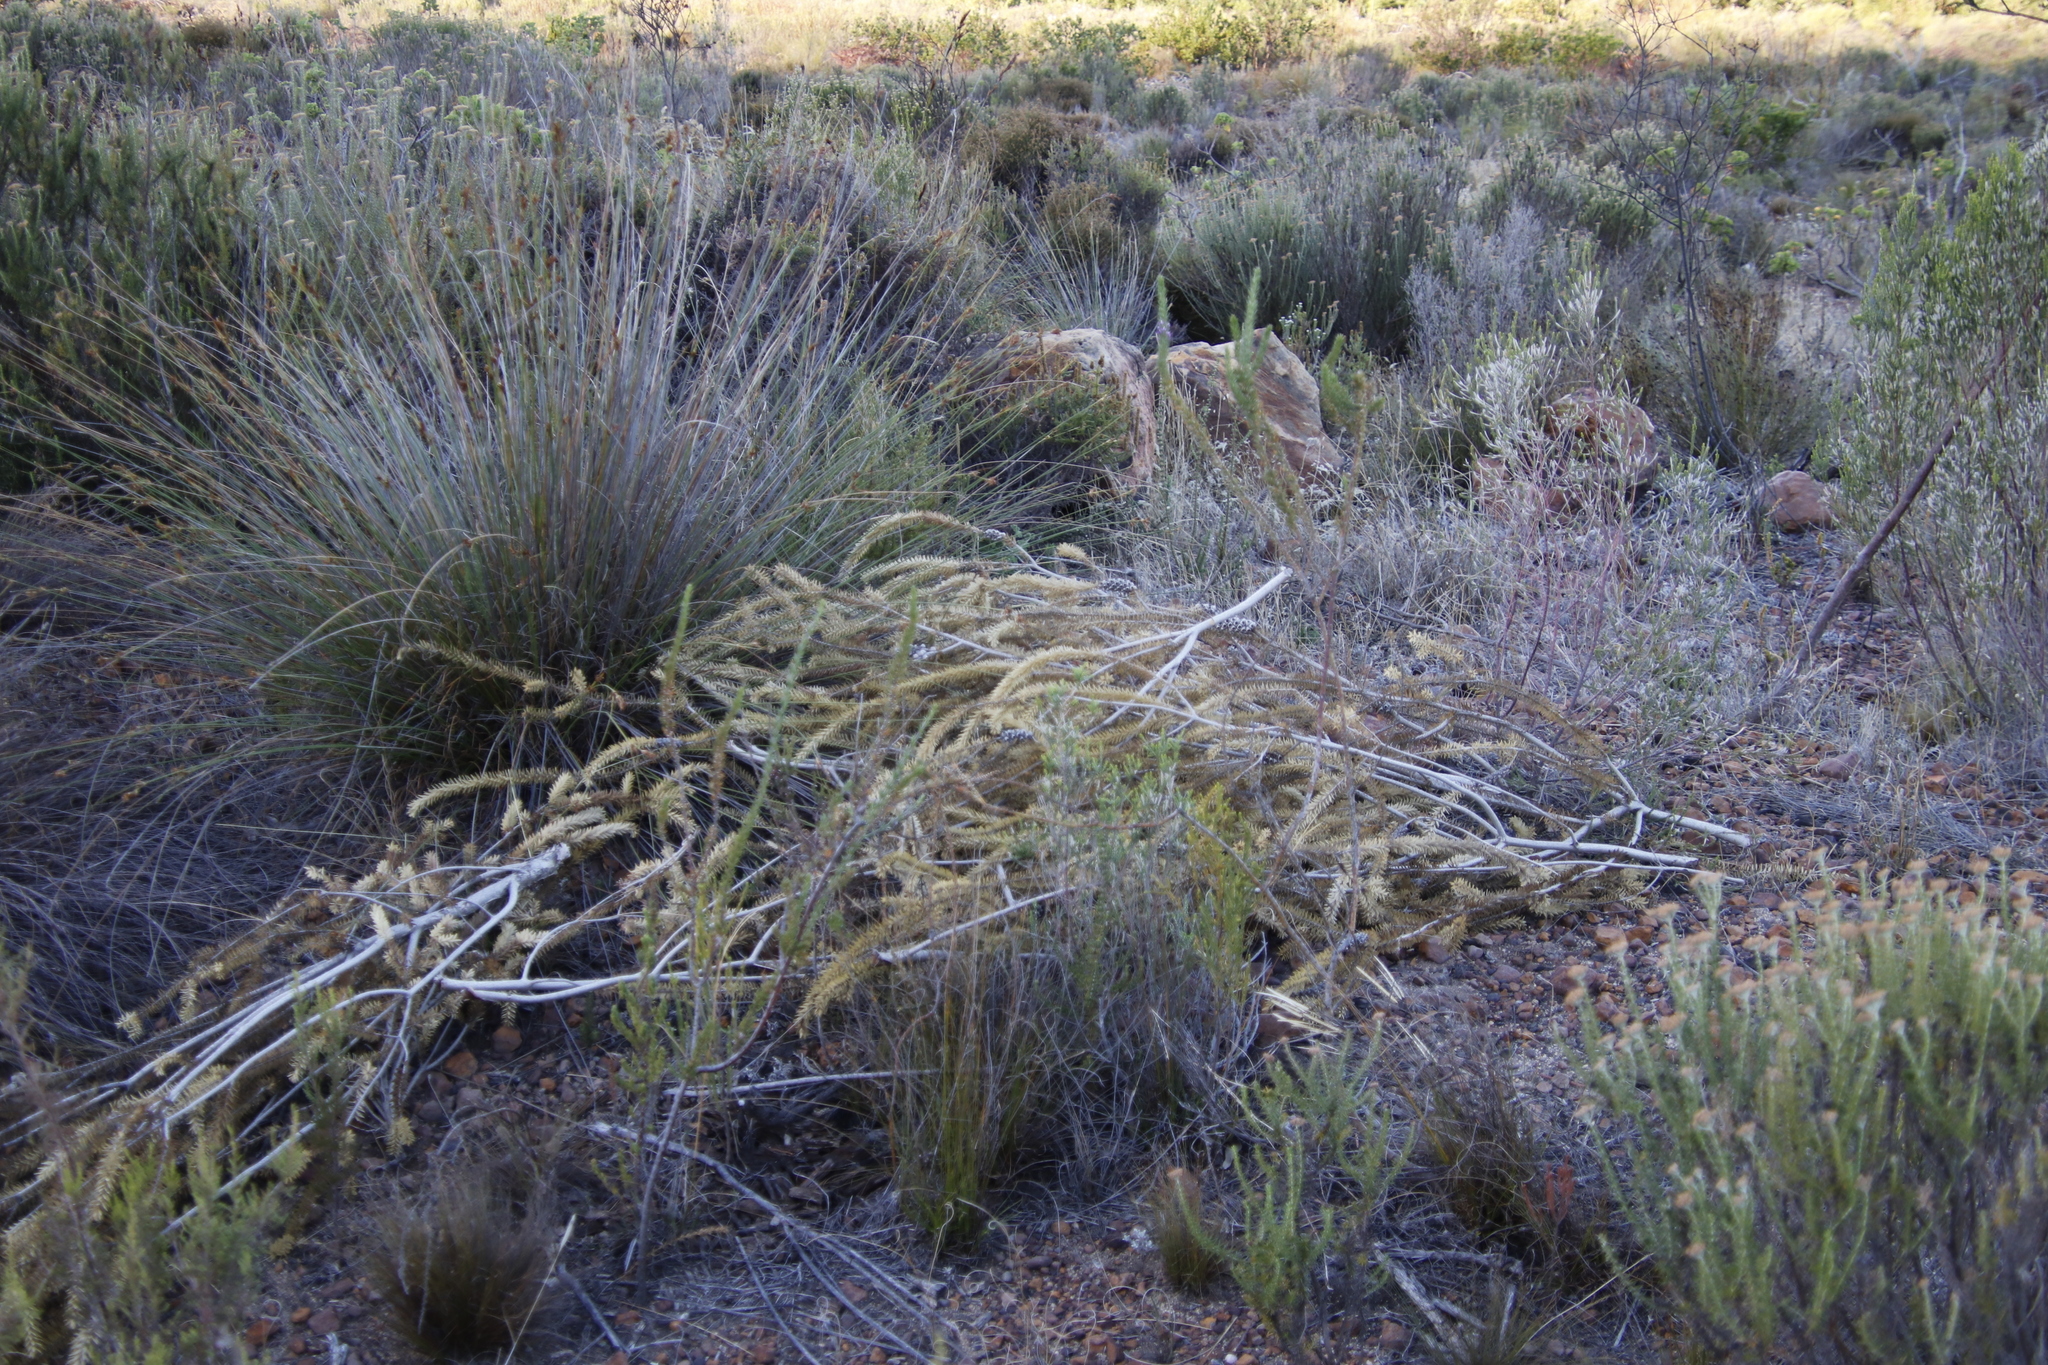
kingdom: Plantae
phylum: Tracheophyta
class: Magnoliopsida
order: Myrtales
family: Myrtaceae
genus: Melaleuca
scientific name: Melaleuca diosmifolia
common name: Green honey myrtle
